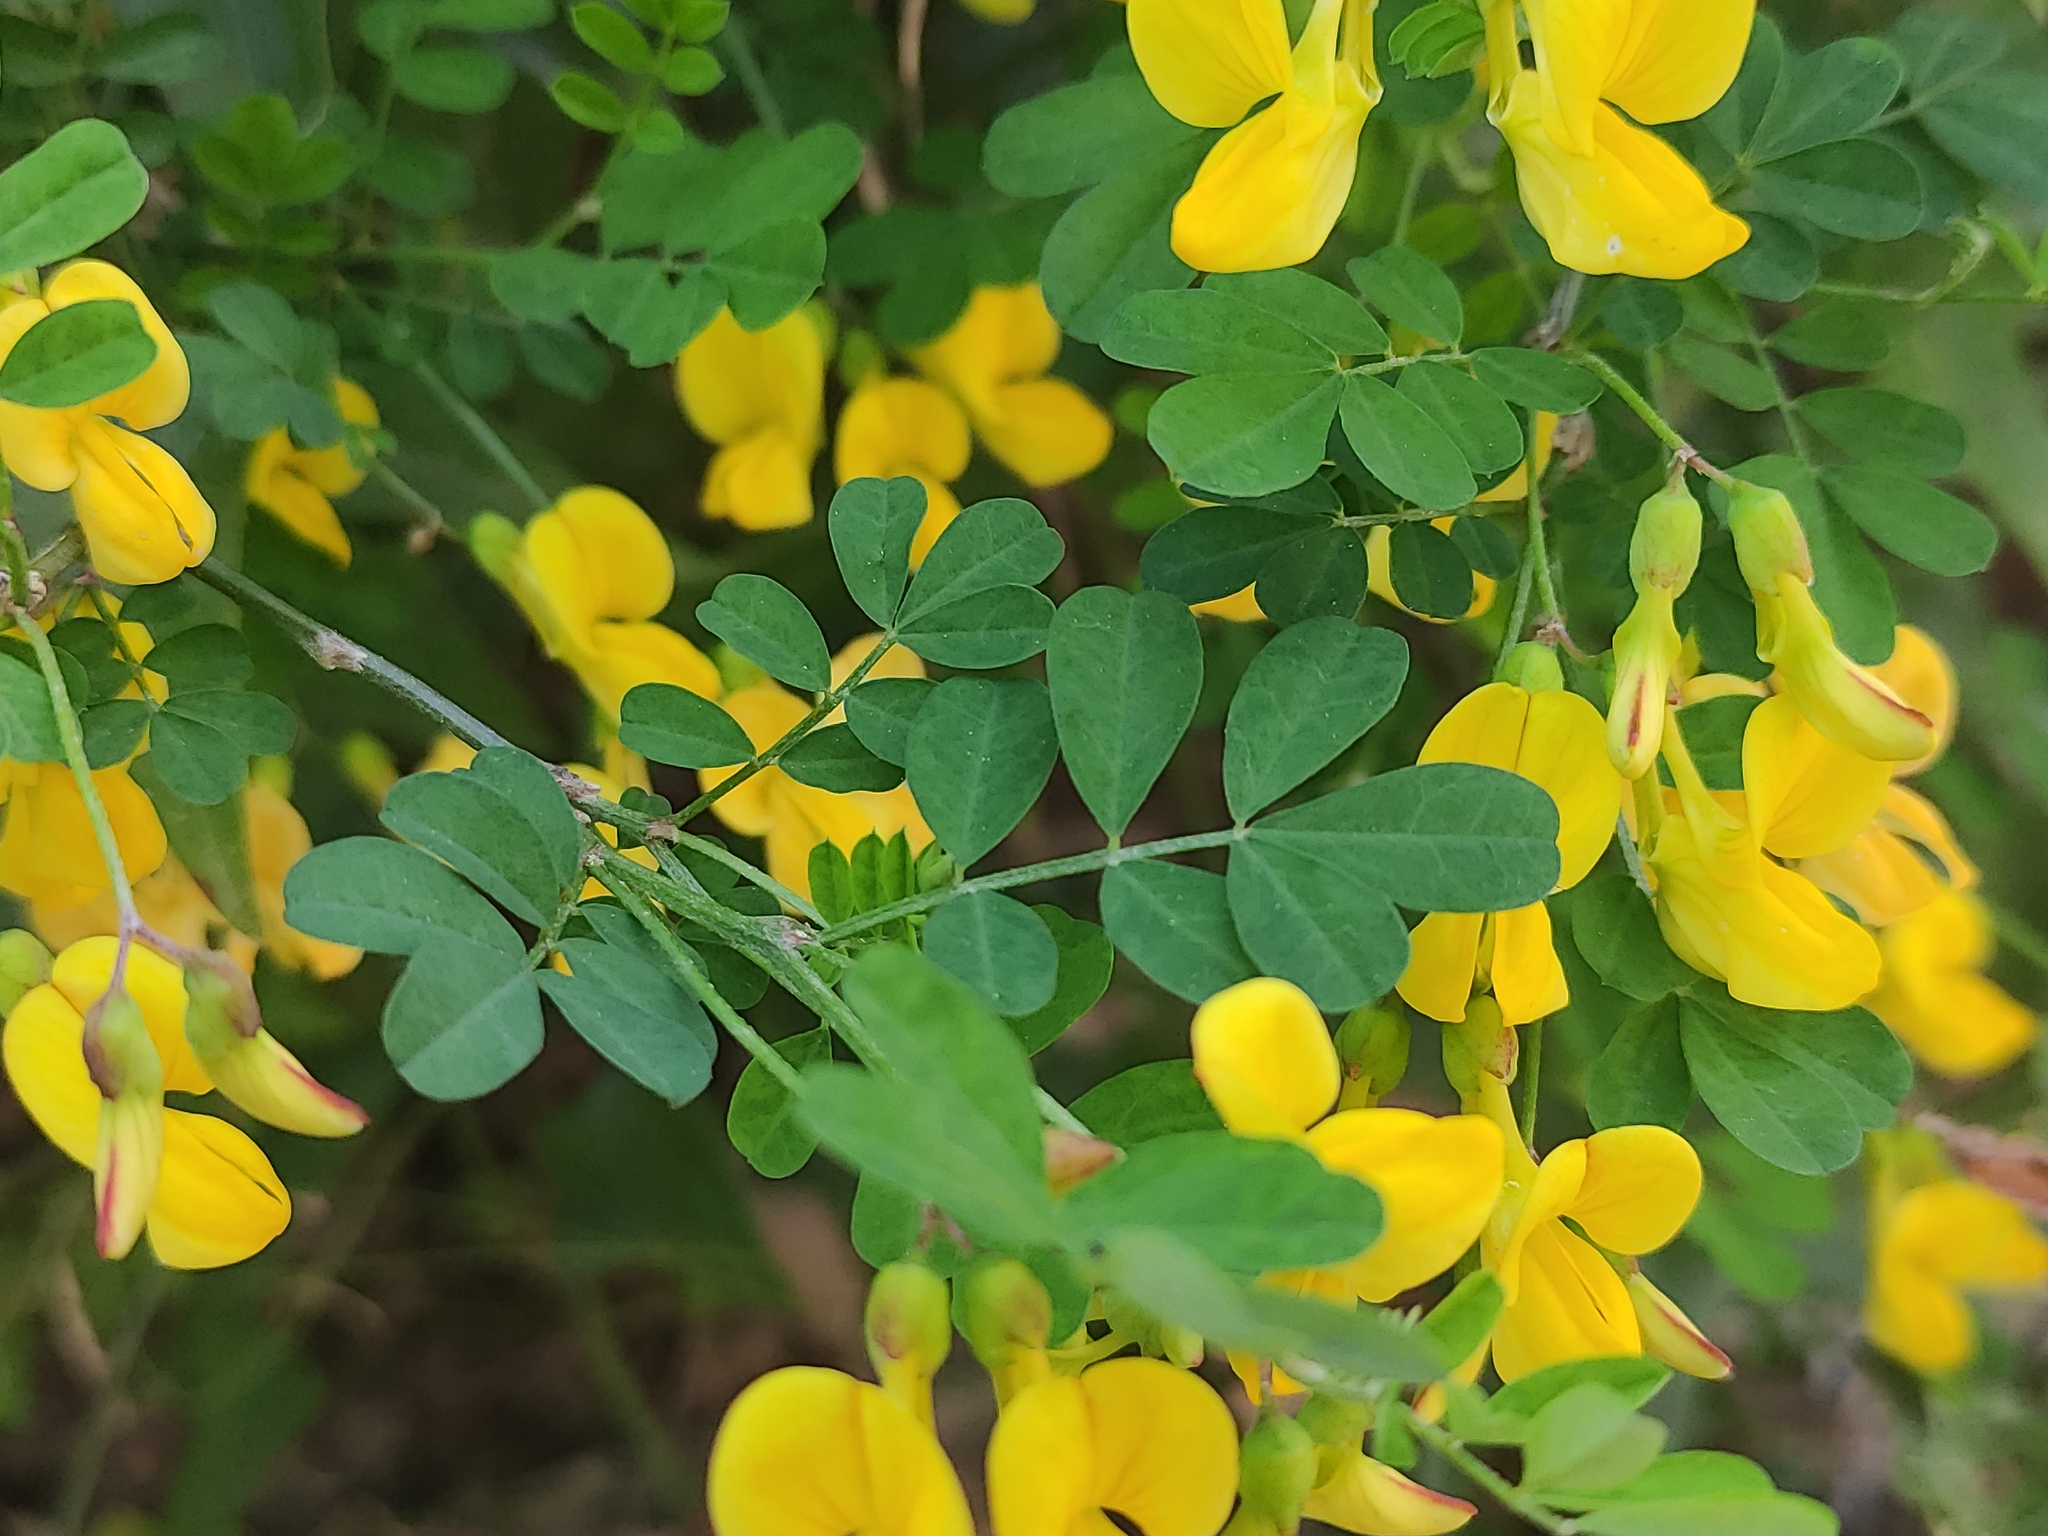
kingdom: Plantae
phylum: Tracheophyta
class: Magnoliopsida
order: Fabales
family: Fabaceae
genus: Hippocrepis
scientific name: Hippocrepis emerus
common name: Scorpion senna
